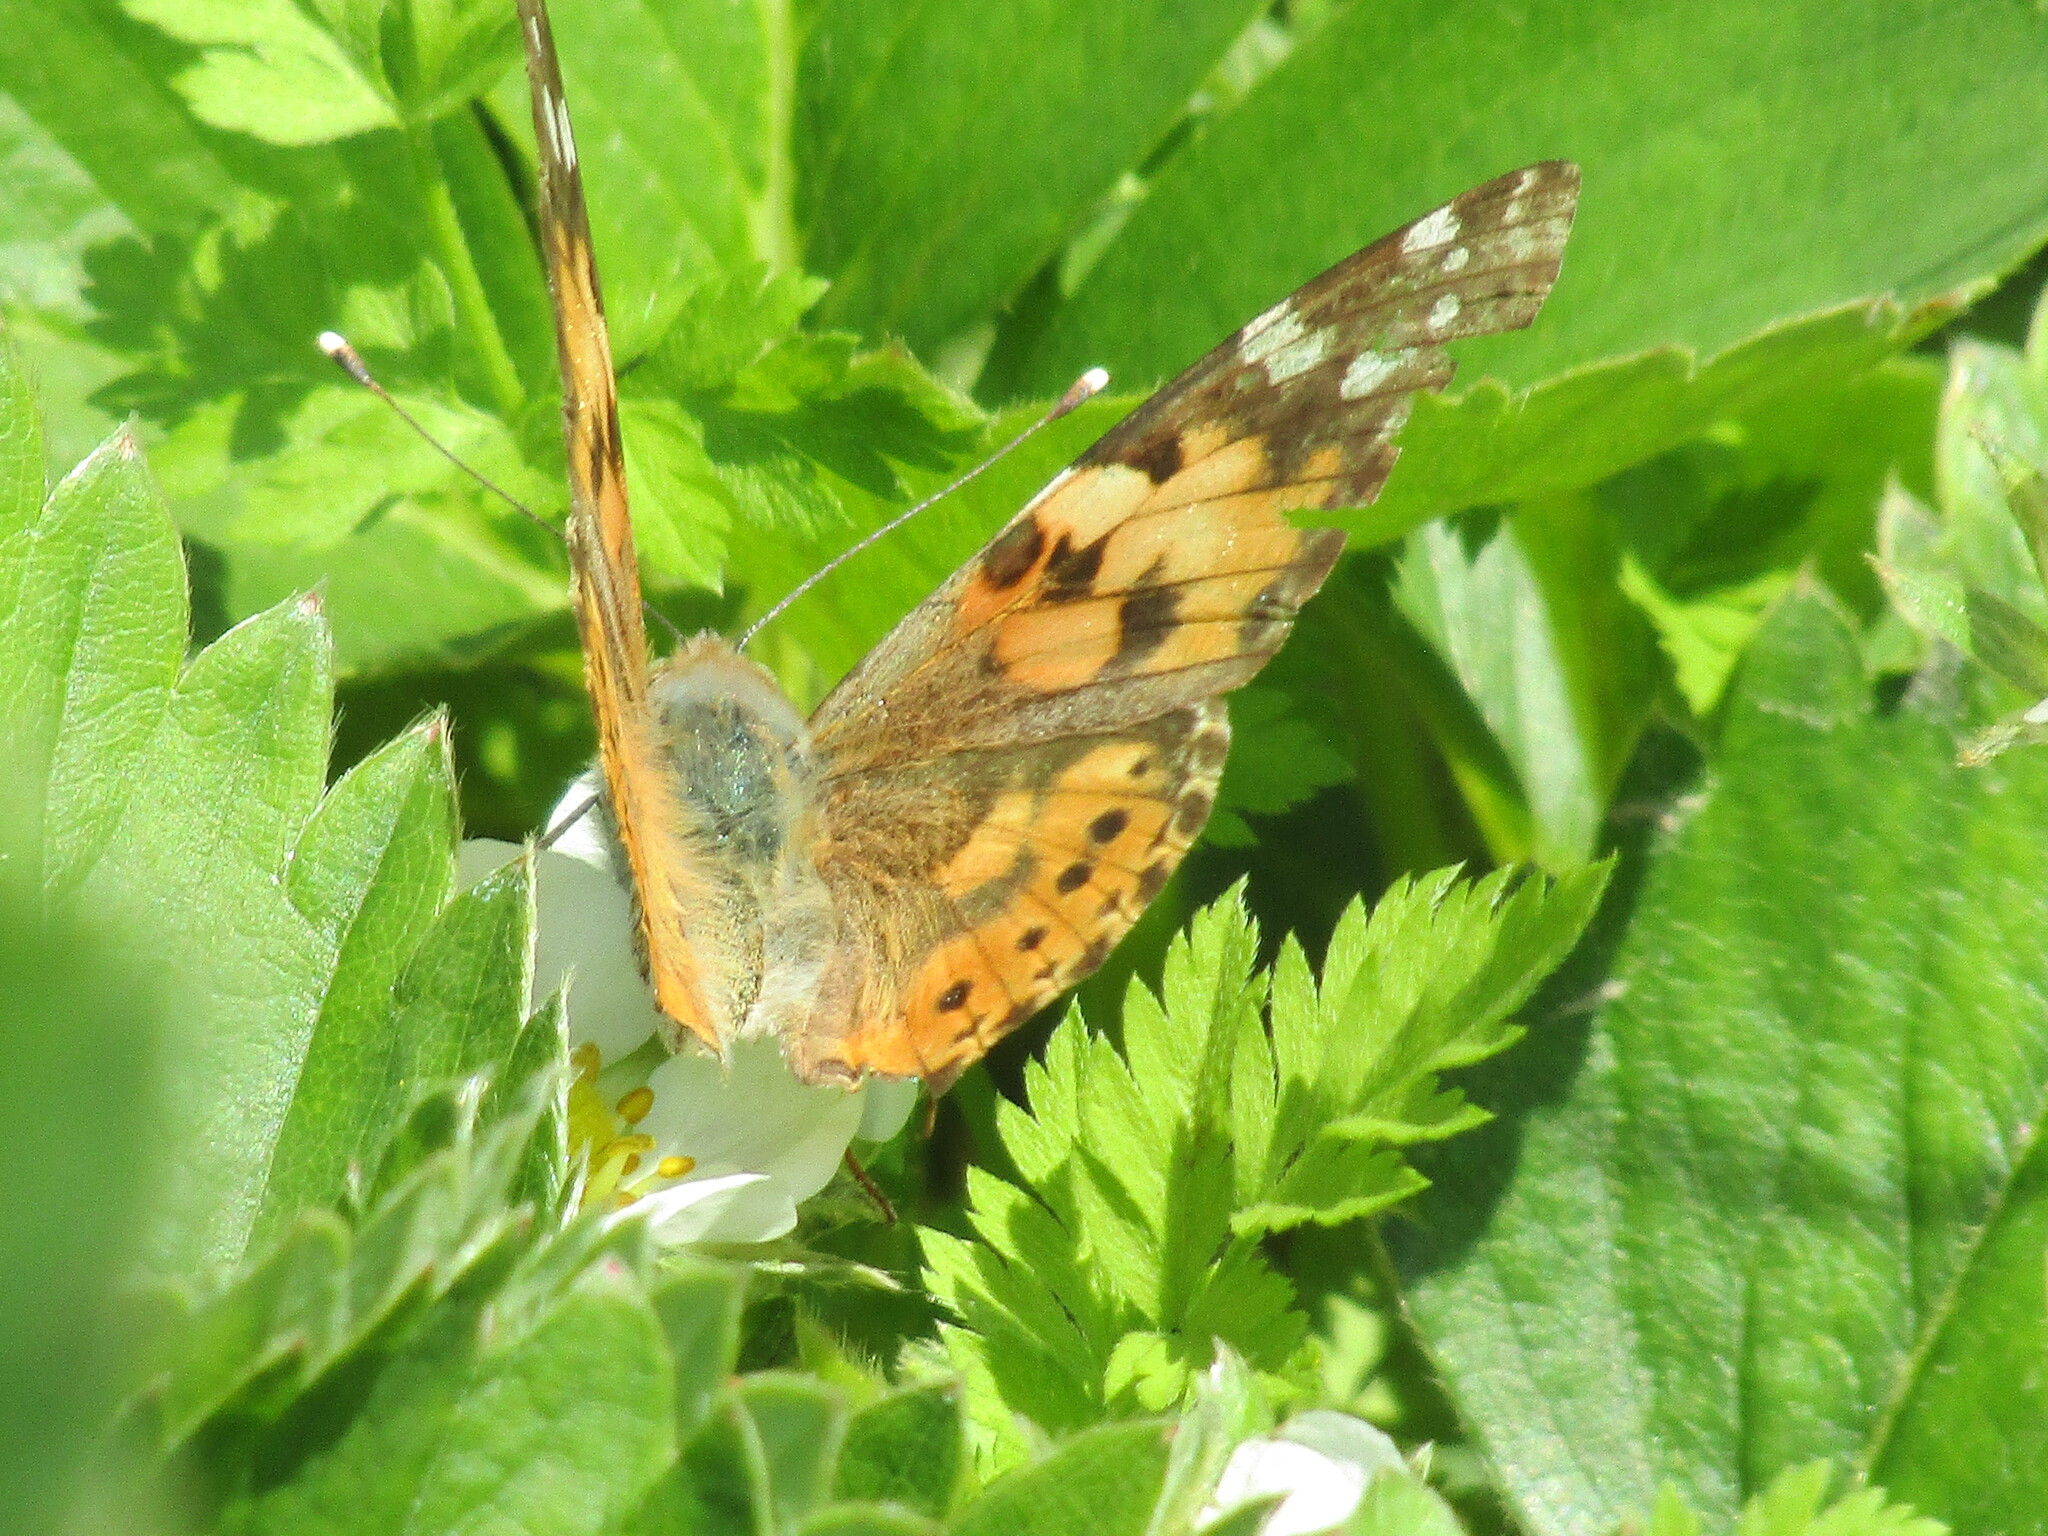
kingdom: Animalia
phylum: Arthropoda
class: Insecta
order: Lepidoptera
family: Nymphalidae
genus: Vanessa
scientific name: Vanessa cardui
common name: Painted lady
